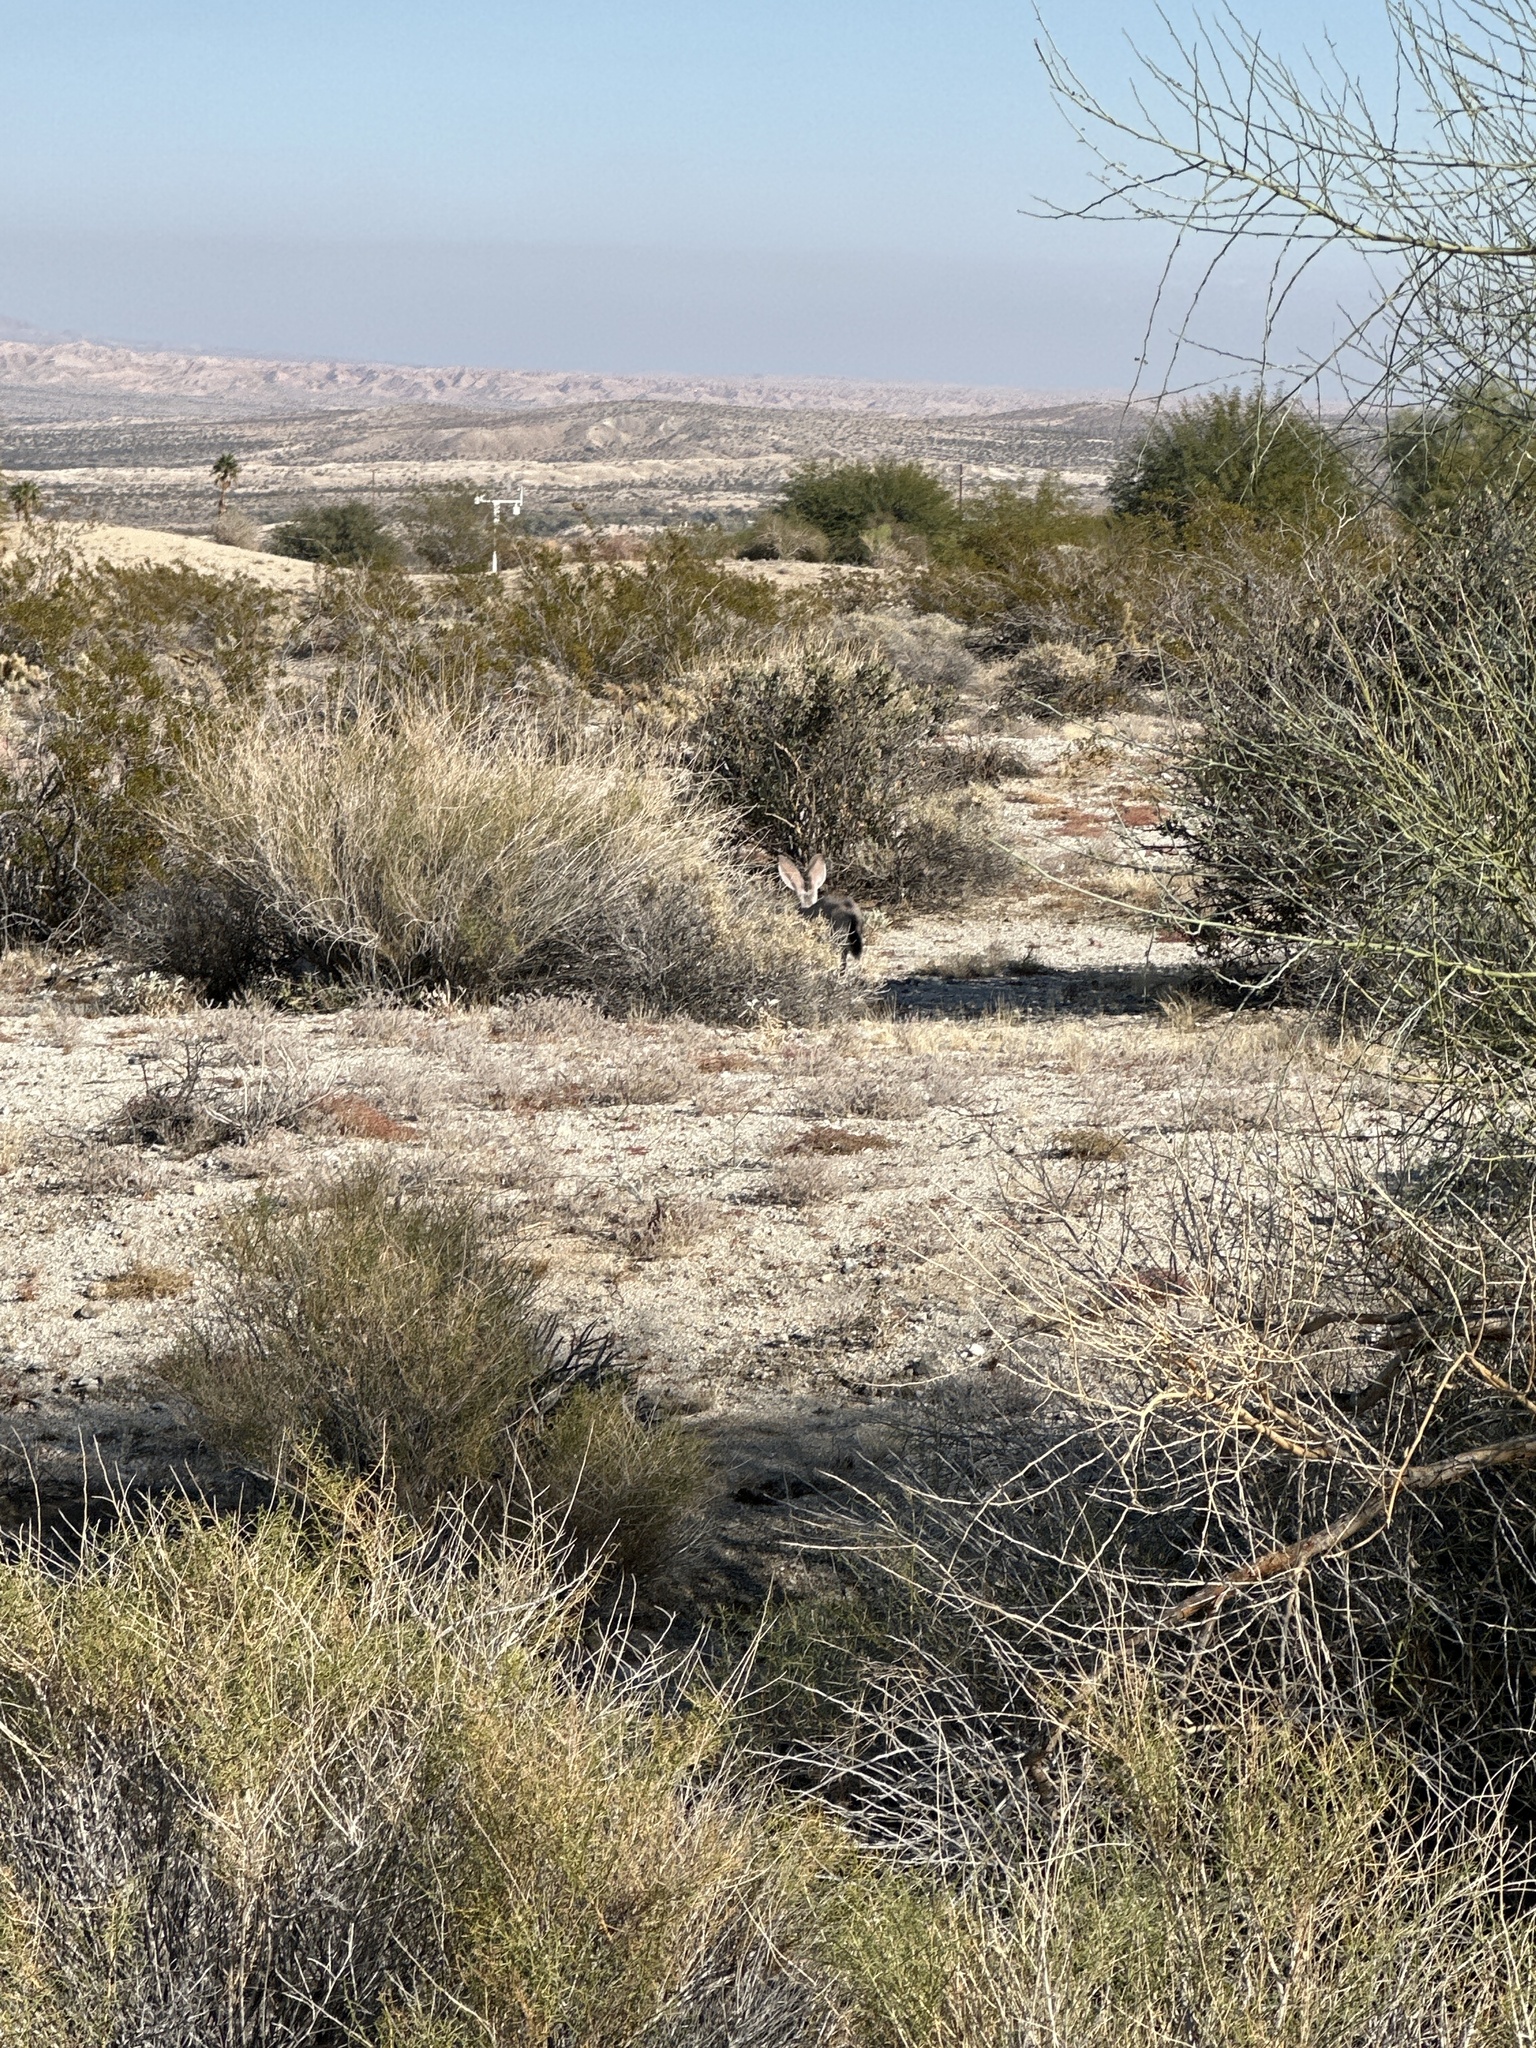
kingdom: Animalia
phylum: Chordata
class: Mammalia
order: Lagomorpha
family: Leporidae
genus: Lepus
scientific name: Lepus californicus
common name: Black-tailed jackrabbit
